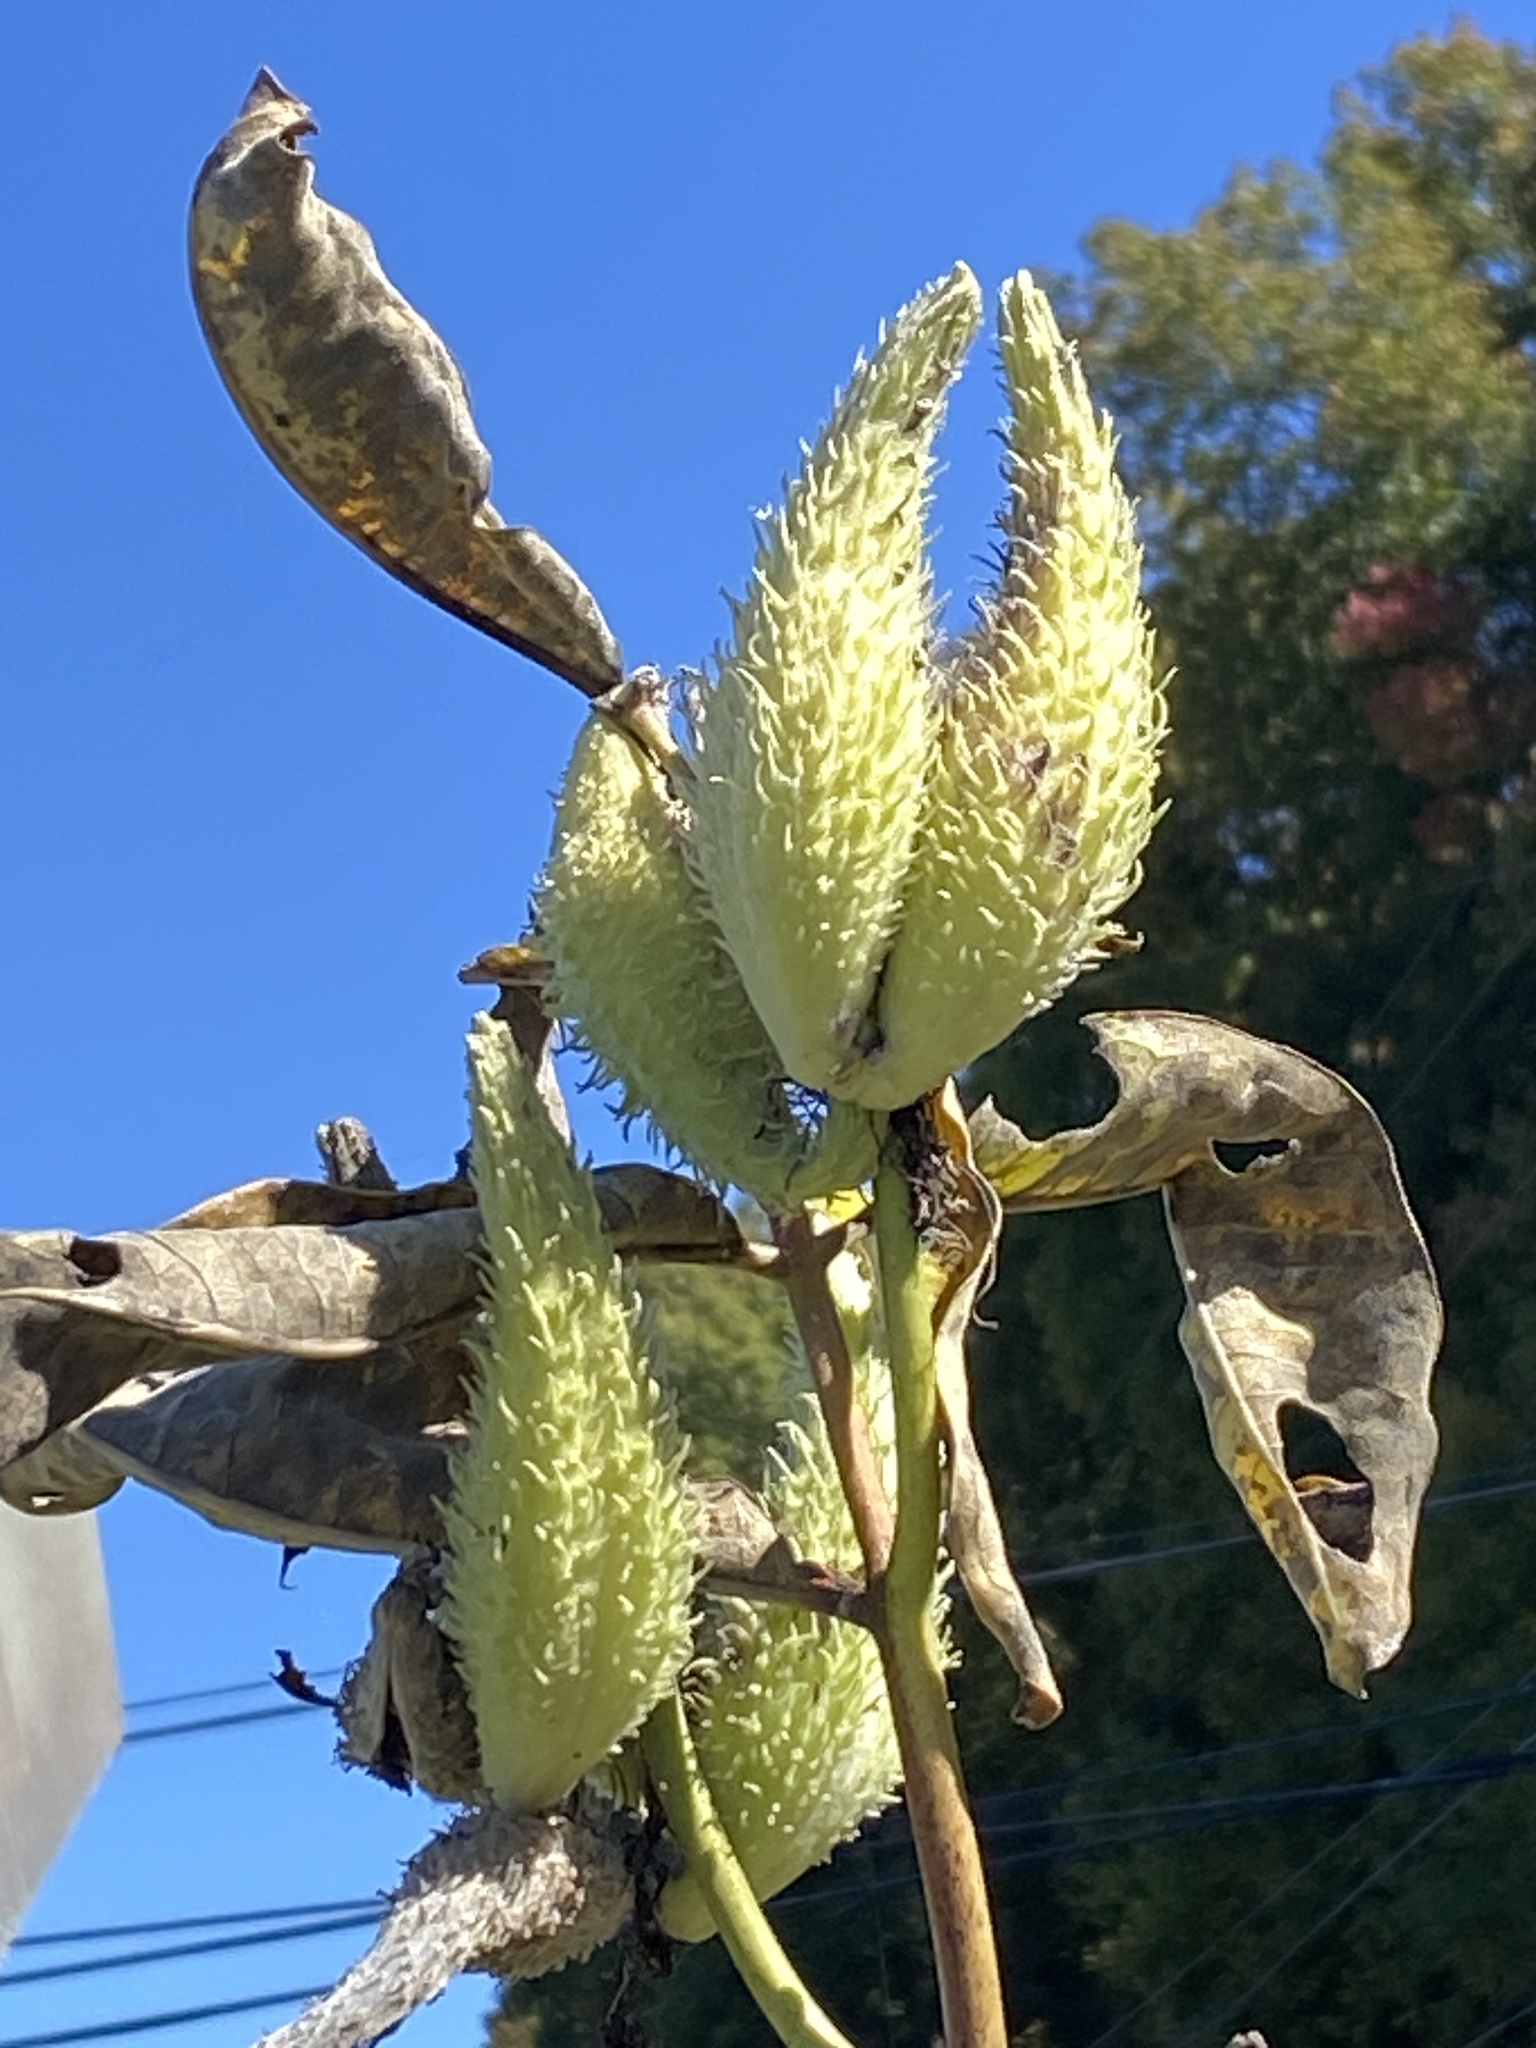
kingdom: Plantae
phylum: Tracheophyta
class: Magnoliopsida
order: Gentianales
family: Apocynaceae
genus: Asclepias
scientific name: Asclepias syriaca
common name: Common milkweed
